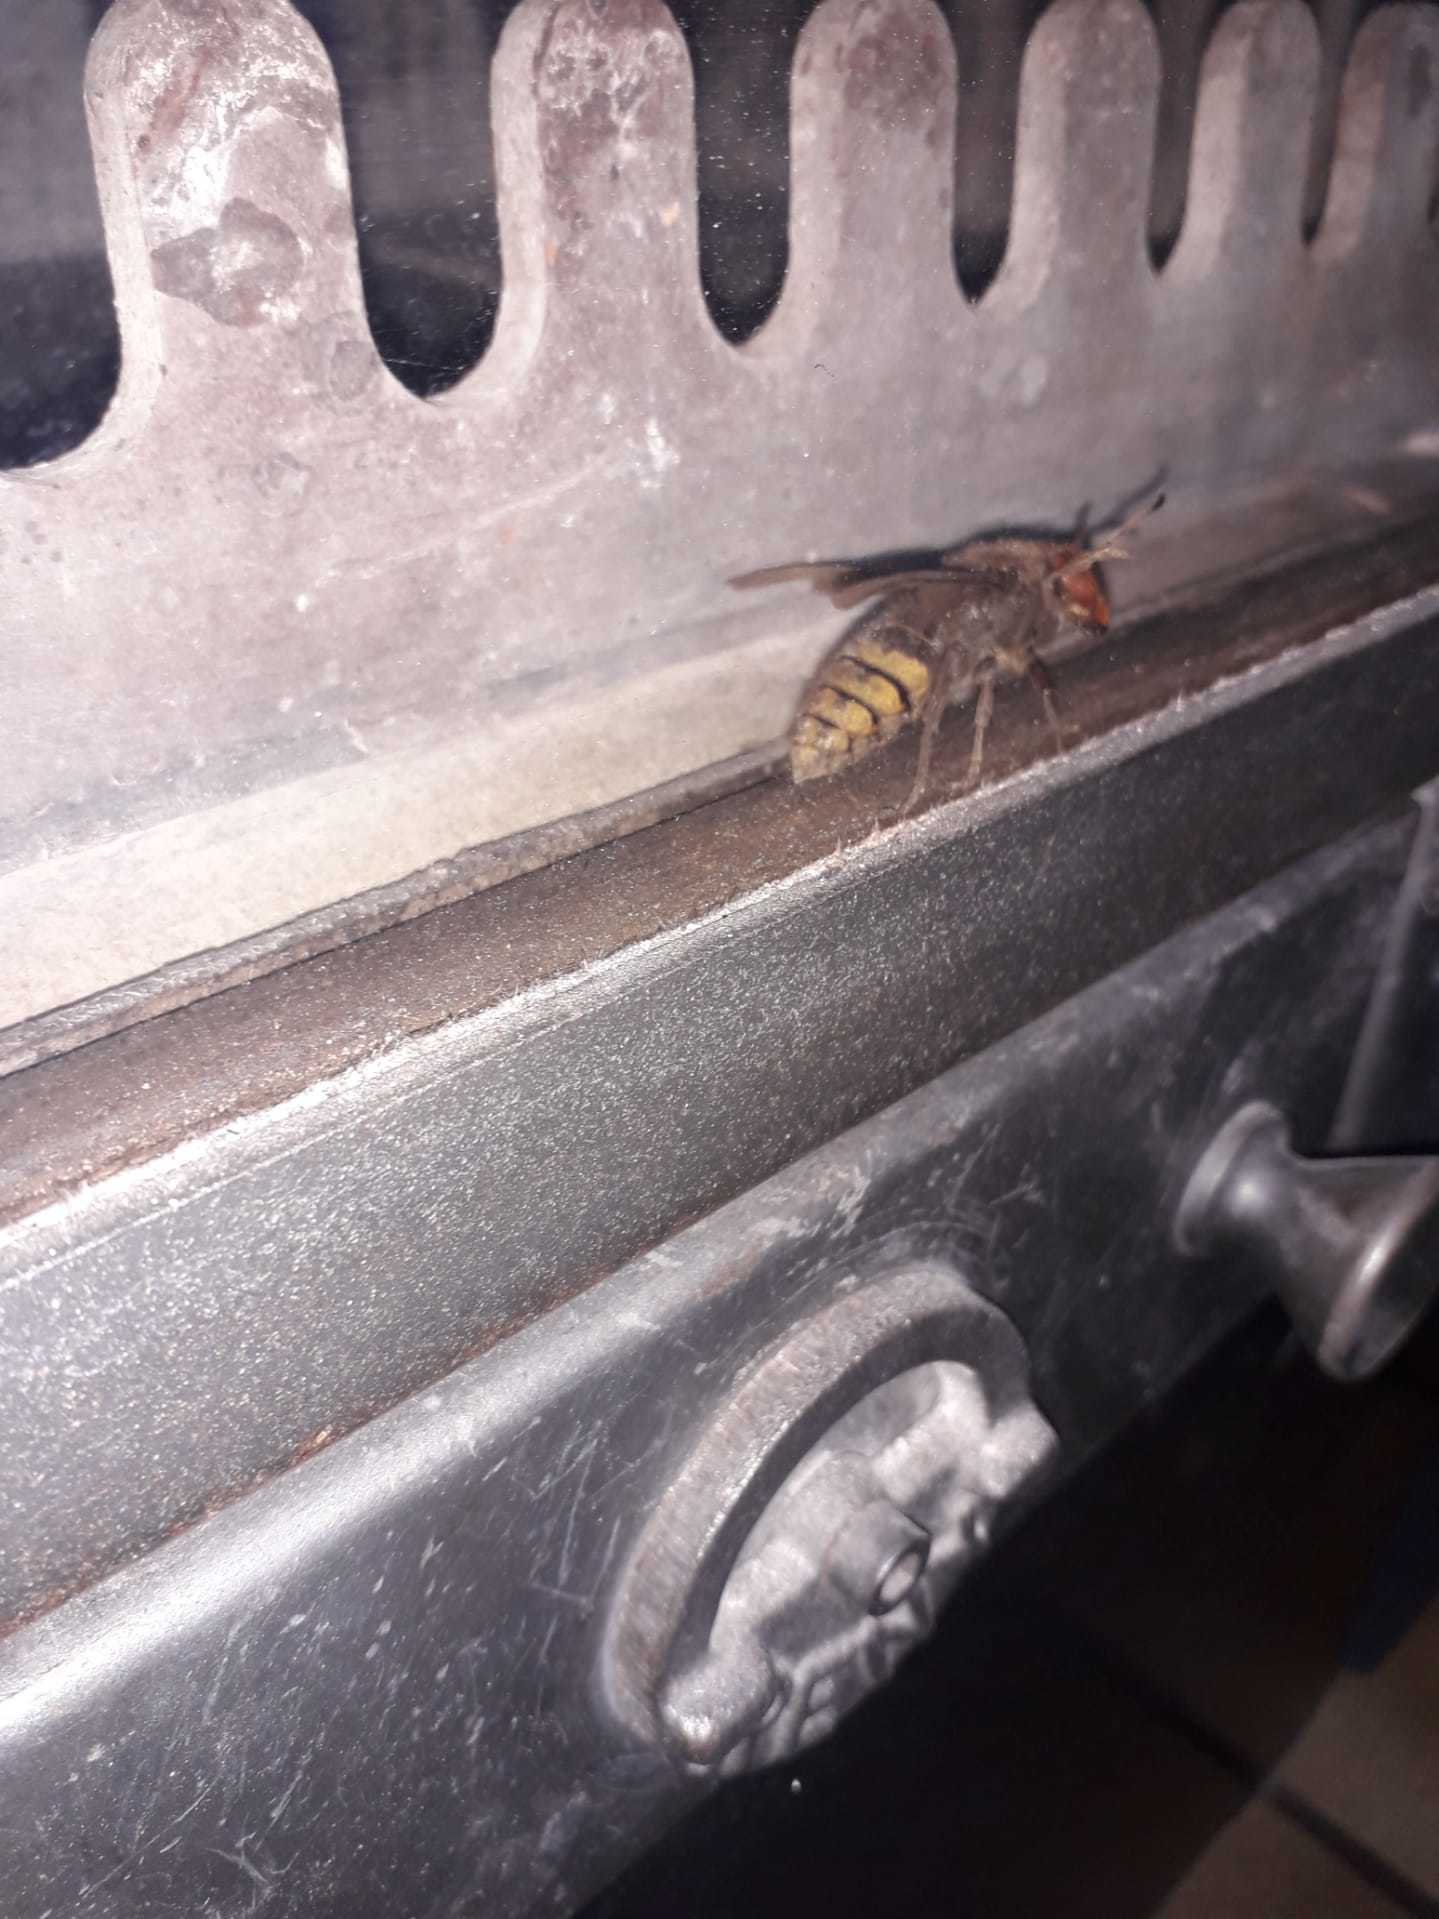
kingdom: Animalia
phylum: Arthropoda
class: Insecta
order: Hymenoptera
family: Vespidae
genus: Vespa
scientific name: Vespa crabro
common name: Hornet
